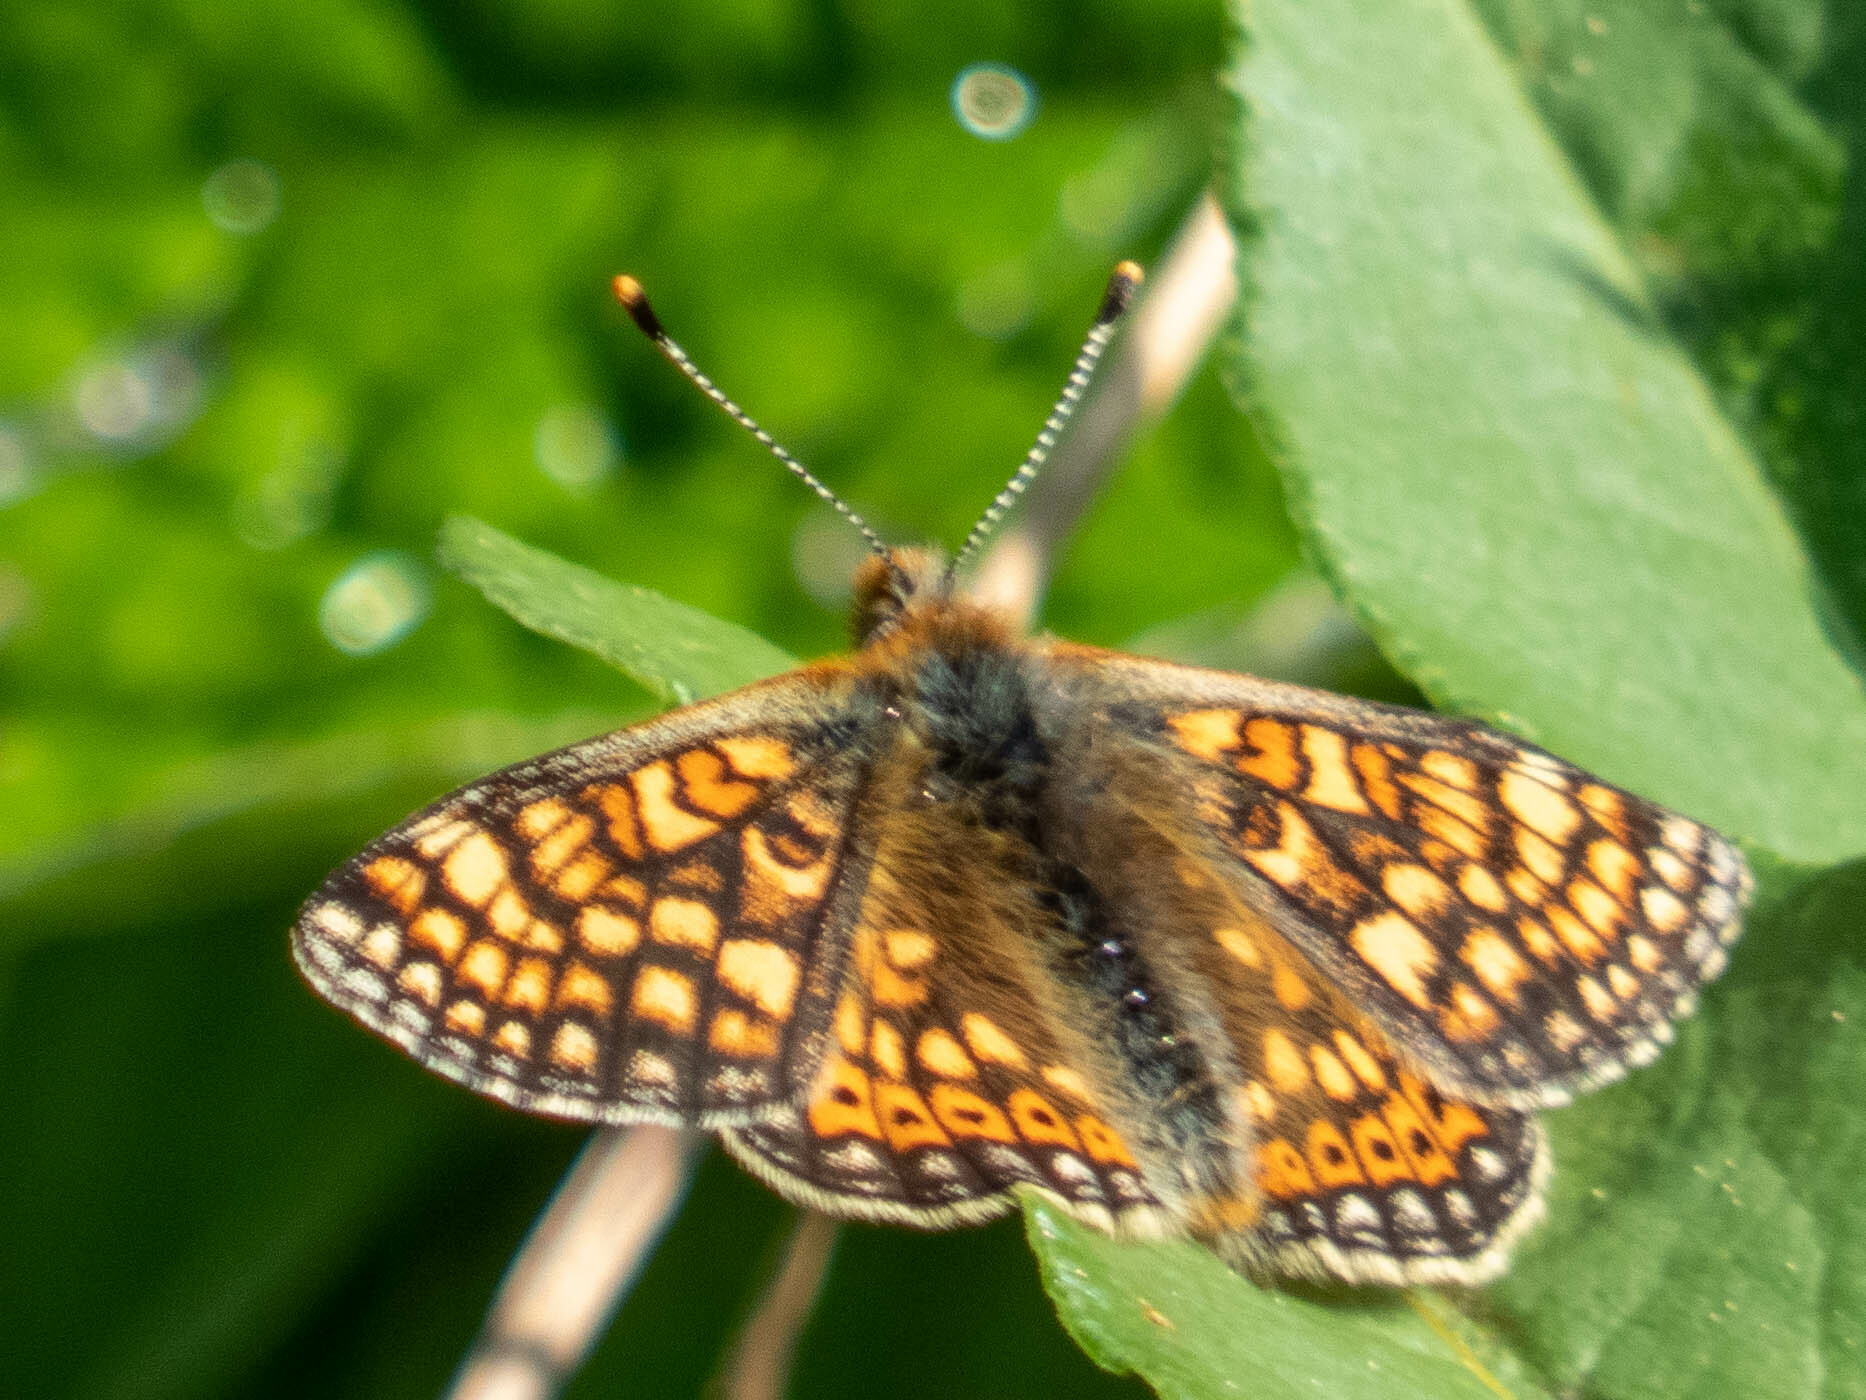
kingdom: Animalia
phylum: Arthropoda
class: Insecta
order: Lepidoptera
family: Nymphalidae
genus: Euphydryas
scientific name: Euphydryas aurinia
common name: Marsh fritillary
